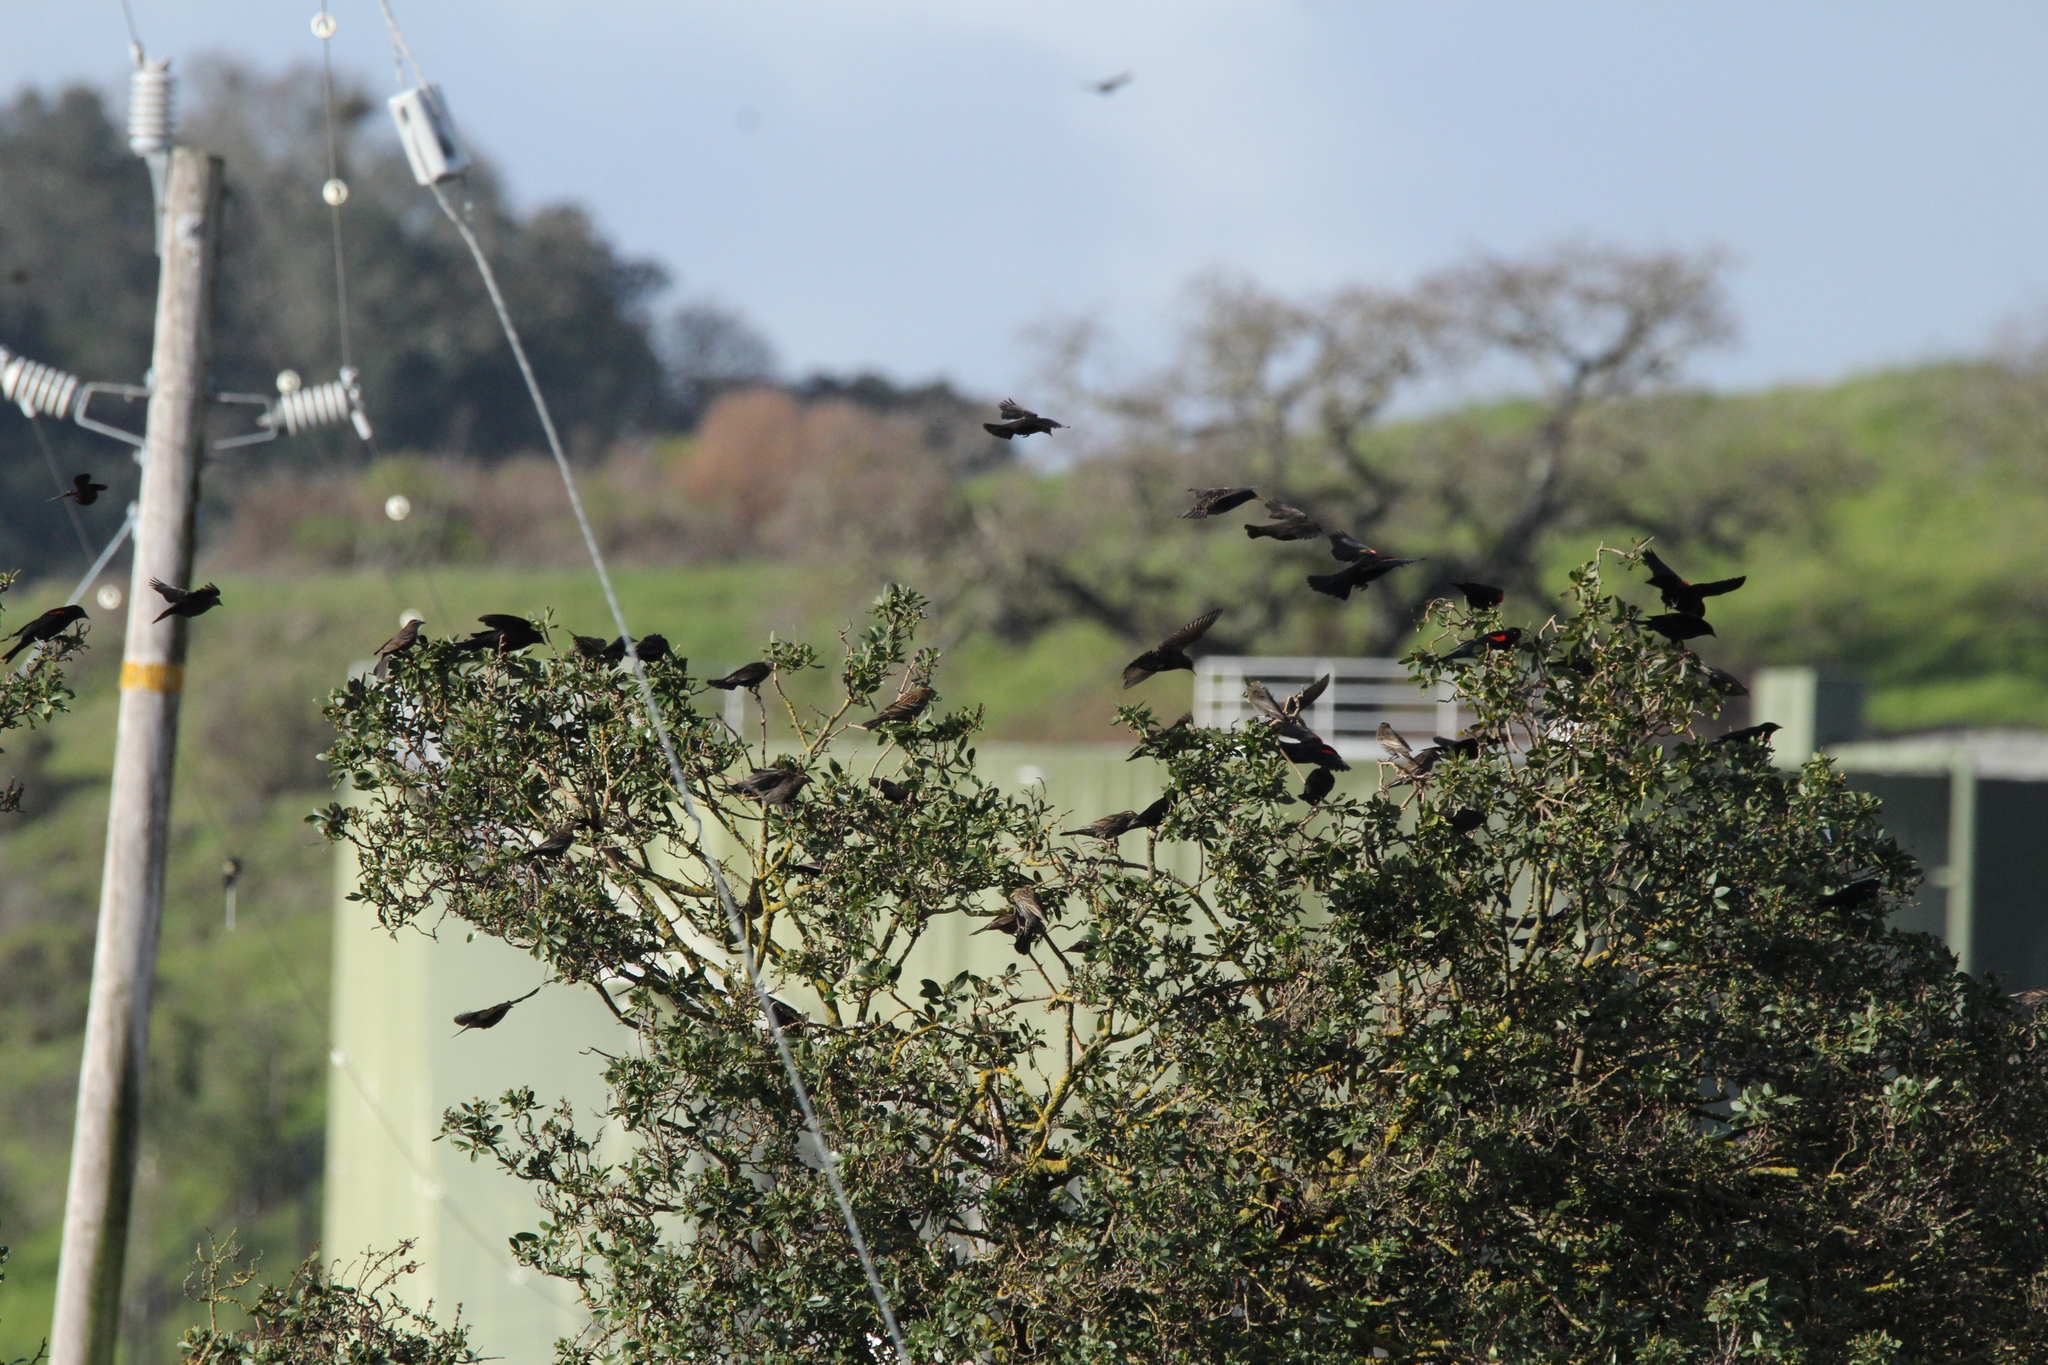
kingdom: Animalia
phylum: Chordata
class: Aves
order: Passeriformes
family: Icteridae
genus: Agelaius
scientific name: Agelaius phoeniceus
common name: Red-winged blackbird
